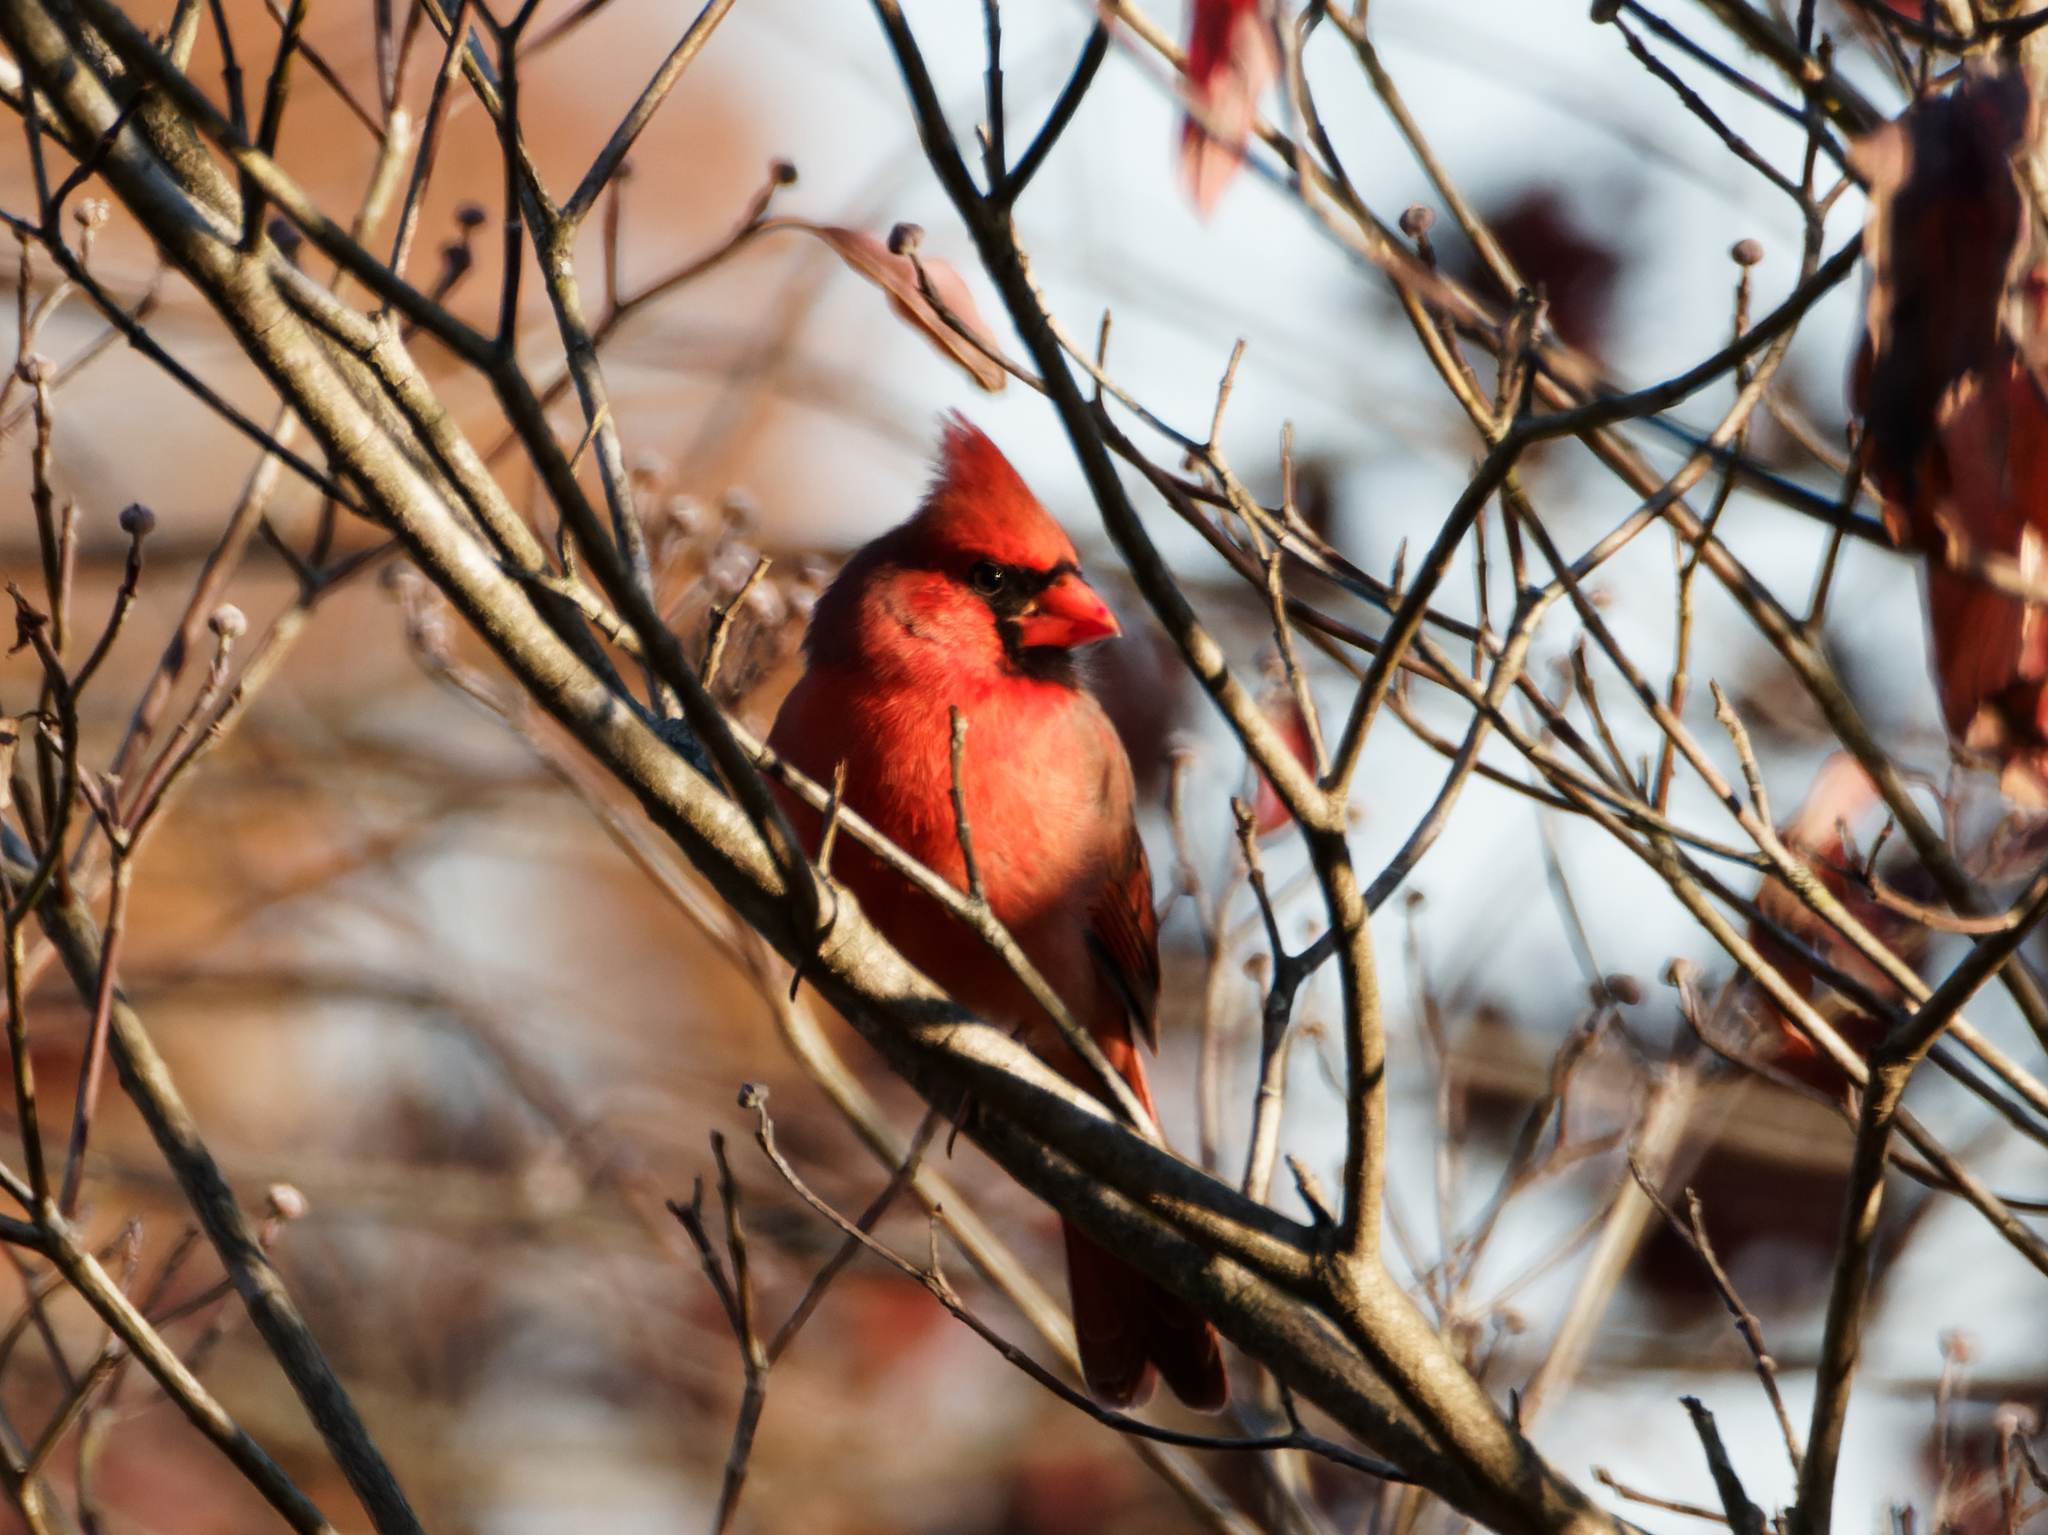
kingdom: Animalia
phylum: Chordata
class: Aves
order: Passeriformes
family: Cardinalidae
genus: Cardinalis
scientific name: Cardinalis cardinalis
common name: Northern cardinal
